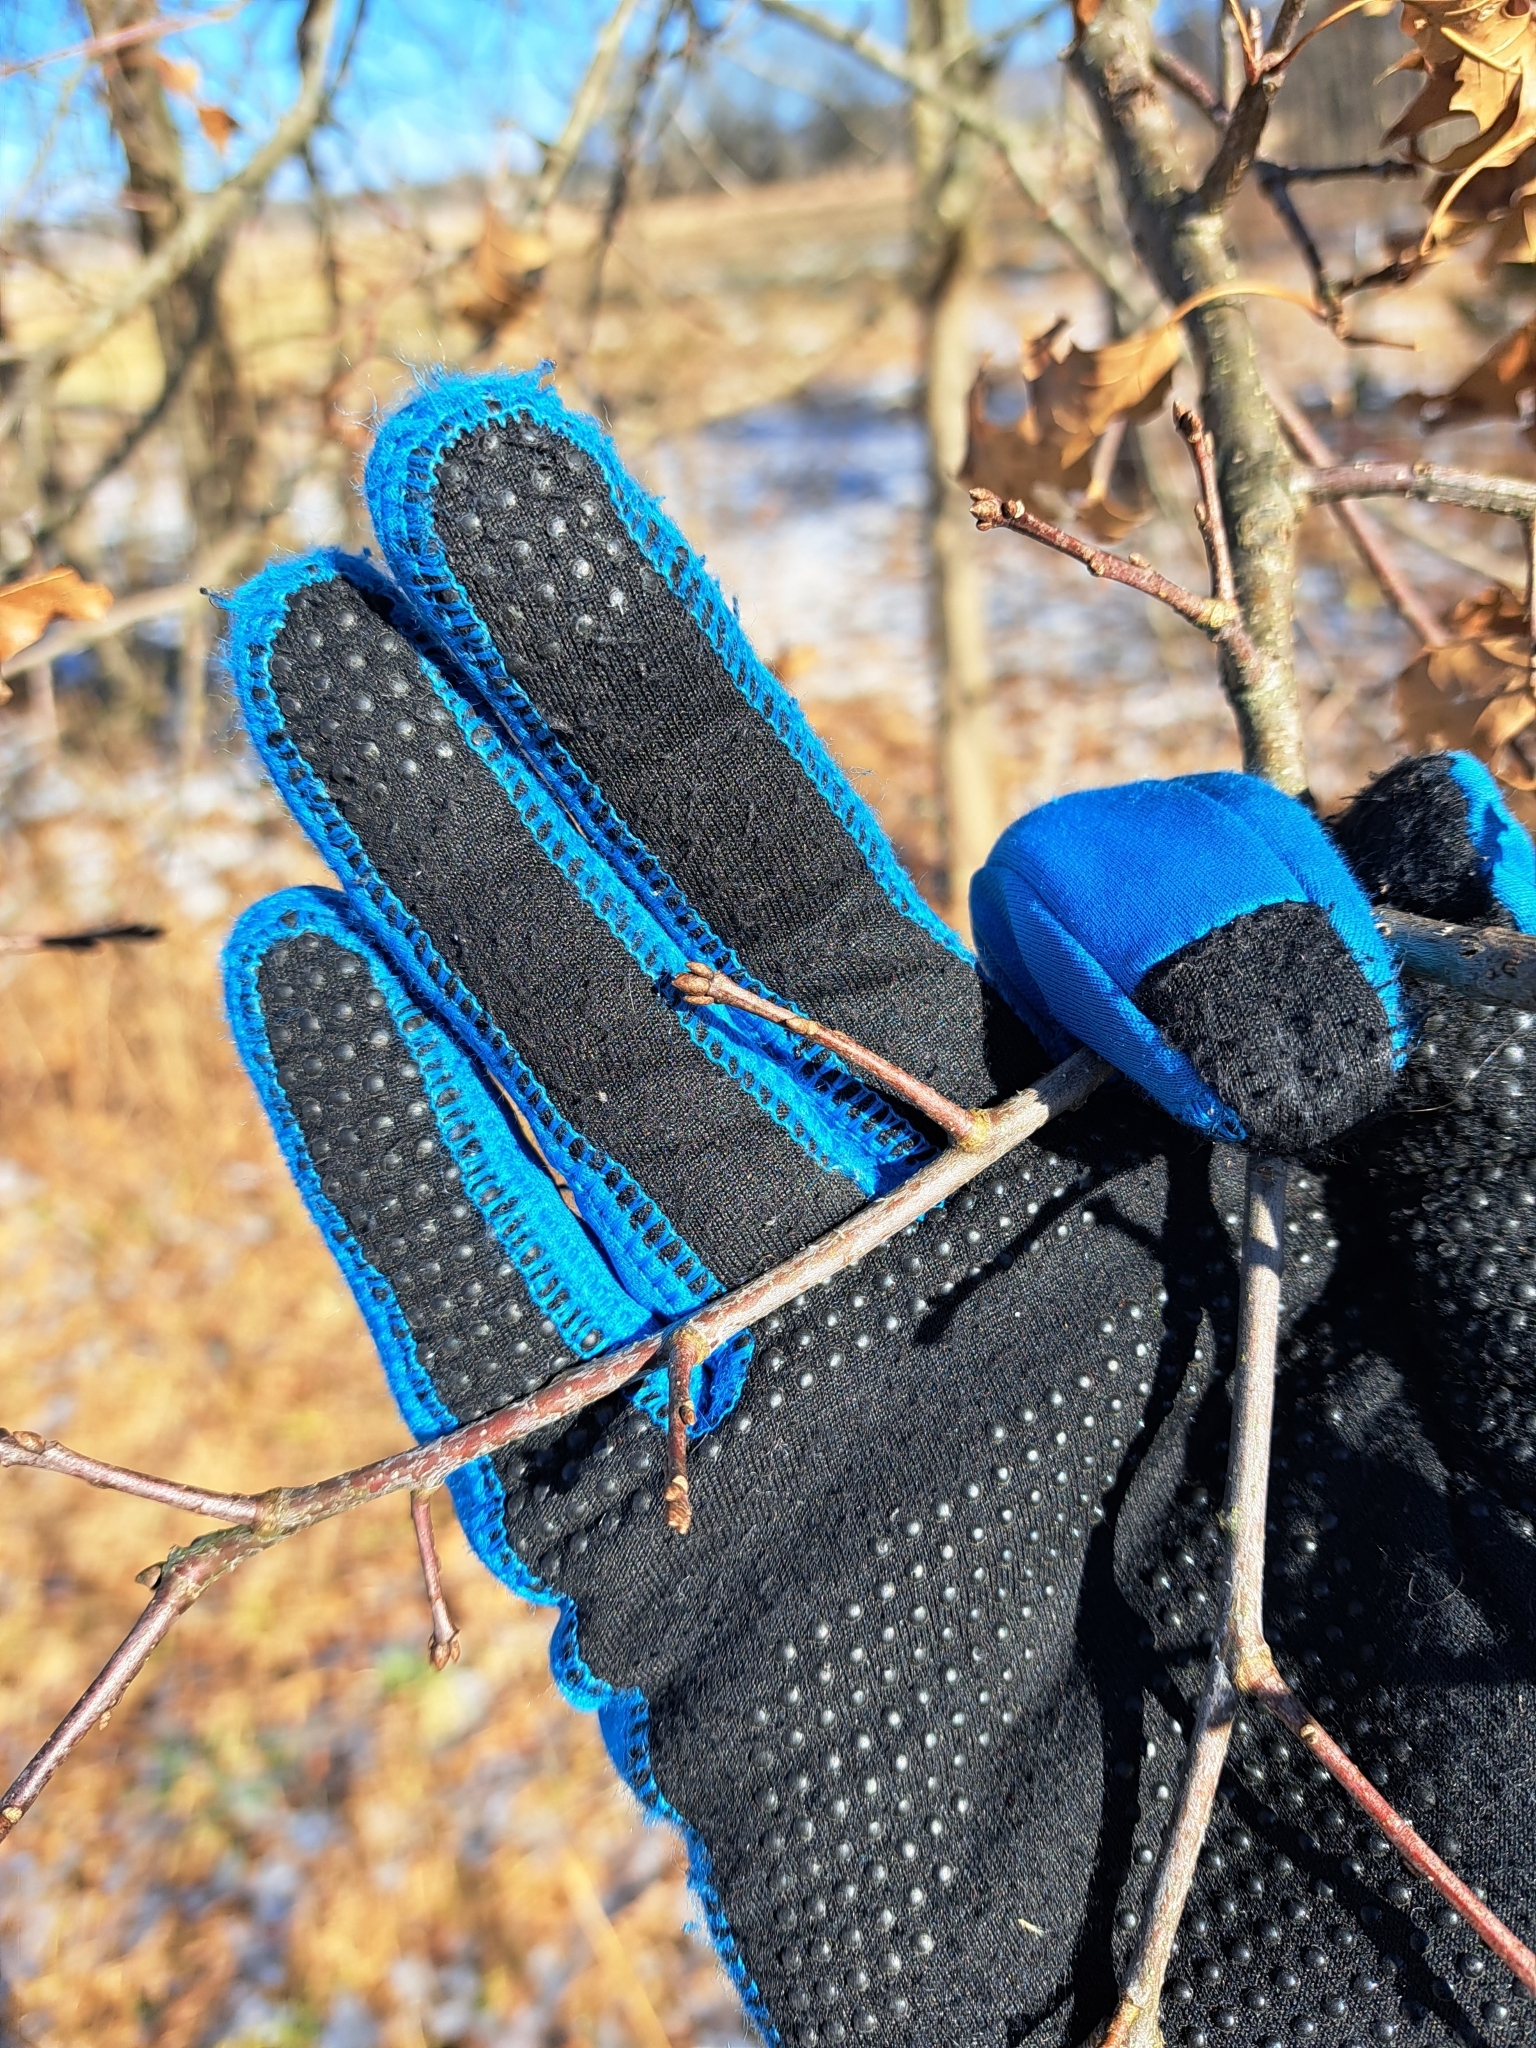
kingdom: Plantae
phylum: Tracheophyta
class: Magnoliopsida
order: Fagales
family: Fagaceae
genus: Quercus
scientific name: Quercus palustris
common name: Pin oak
